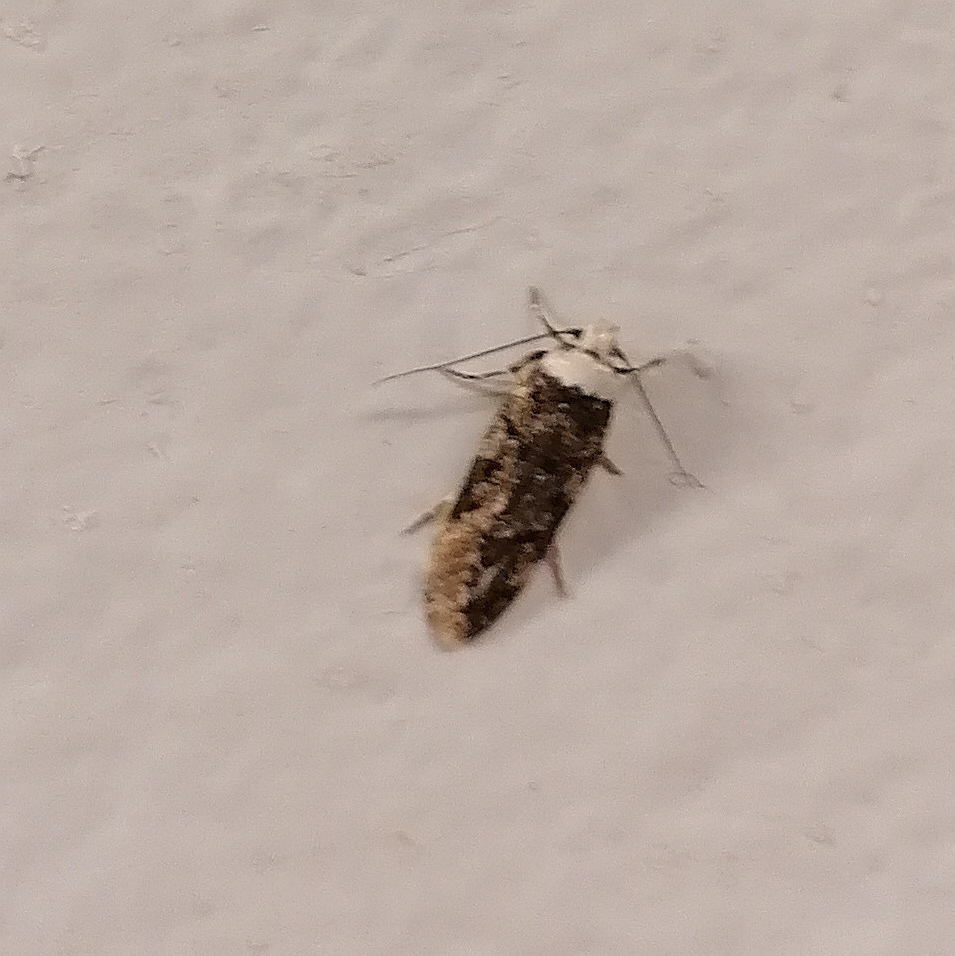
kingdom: Animalia
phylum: Arthropoda
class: Insecta
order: Lepidoptera
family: Oecophoridae
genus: Endrosis
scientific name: Endrosis sarcitrella
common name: White-shouldered house moth
